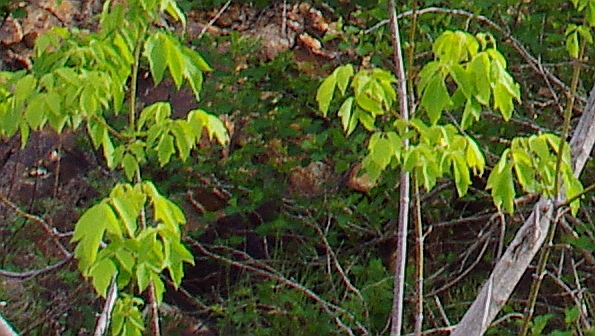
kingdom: Plantae
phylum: Tracheophyta
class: Magnoliopsida
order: Sapindales
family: Sapindaceae
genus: Acer
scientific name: Acer negundo
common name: Ashleaf maple
